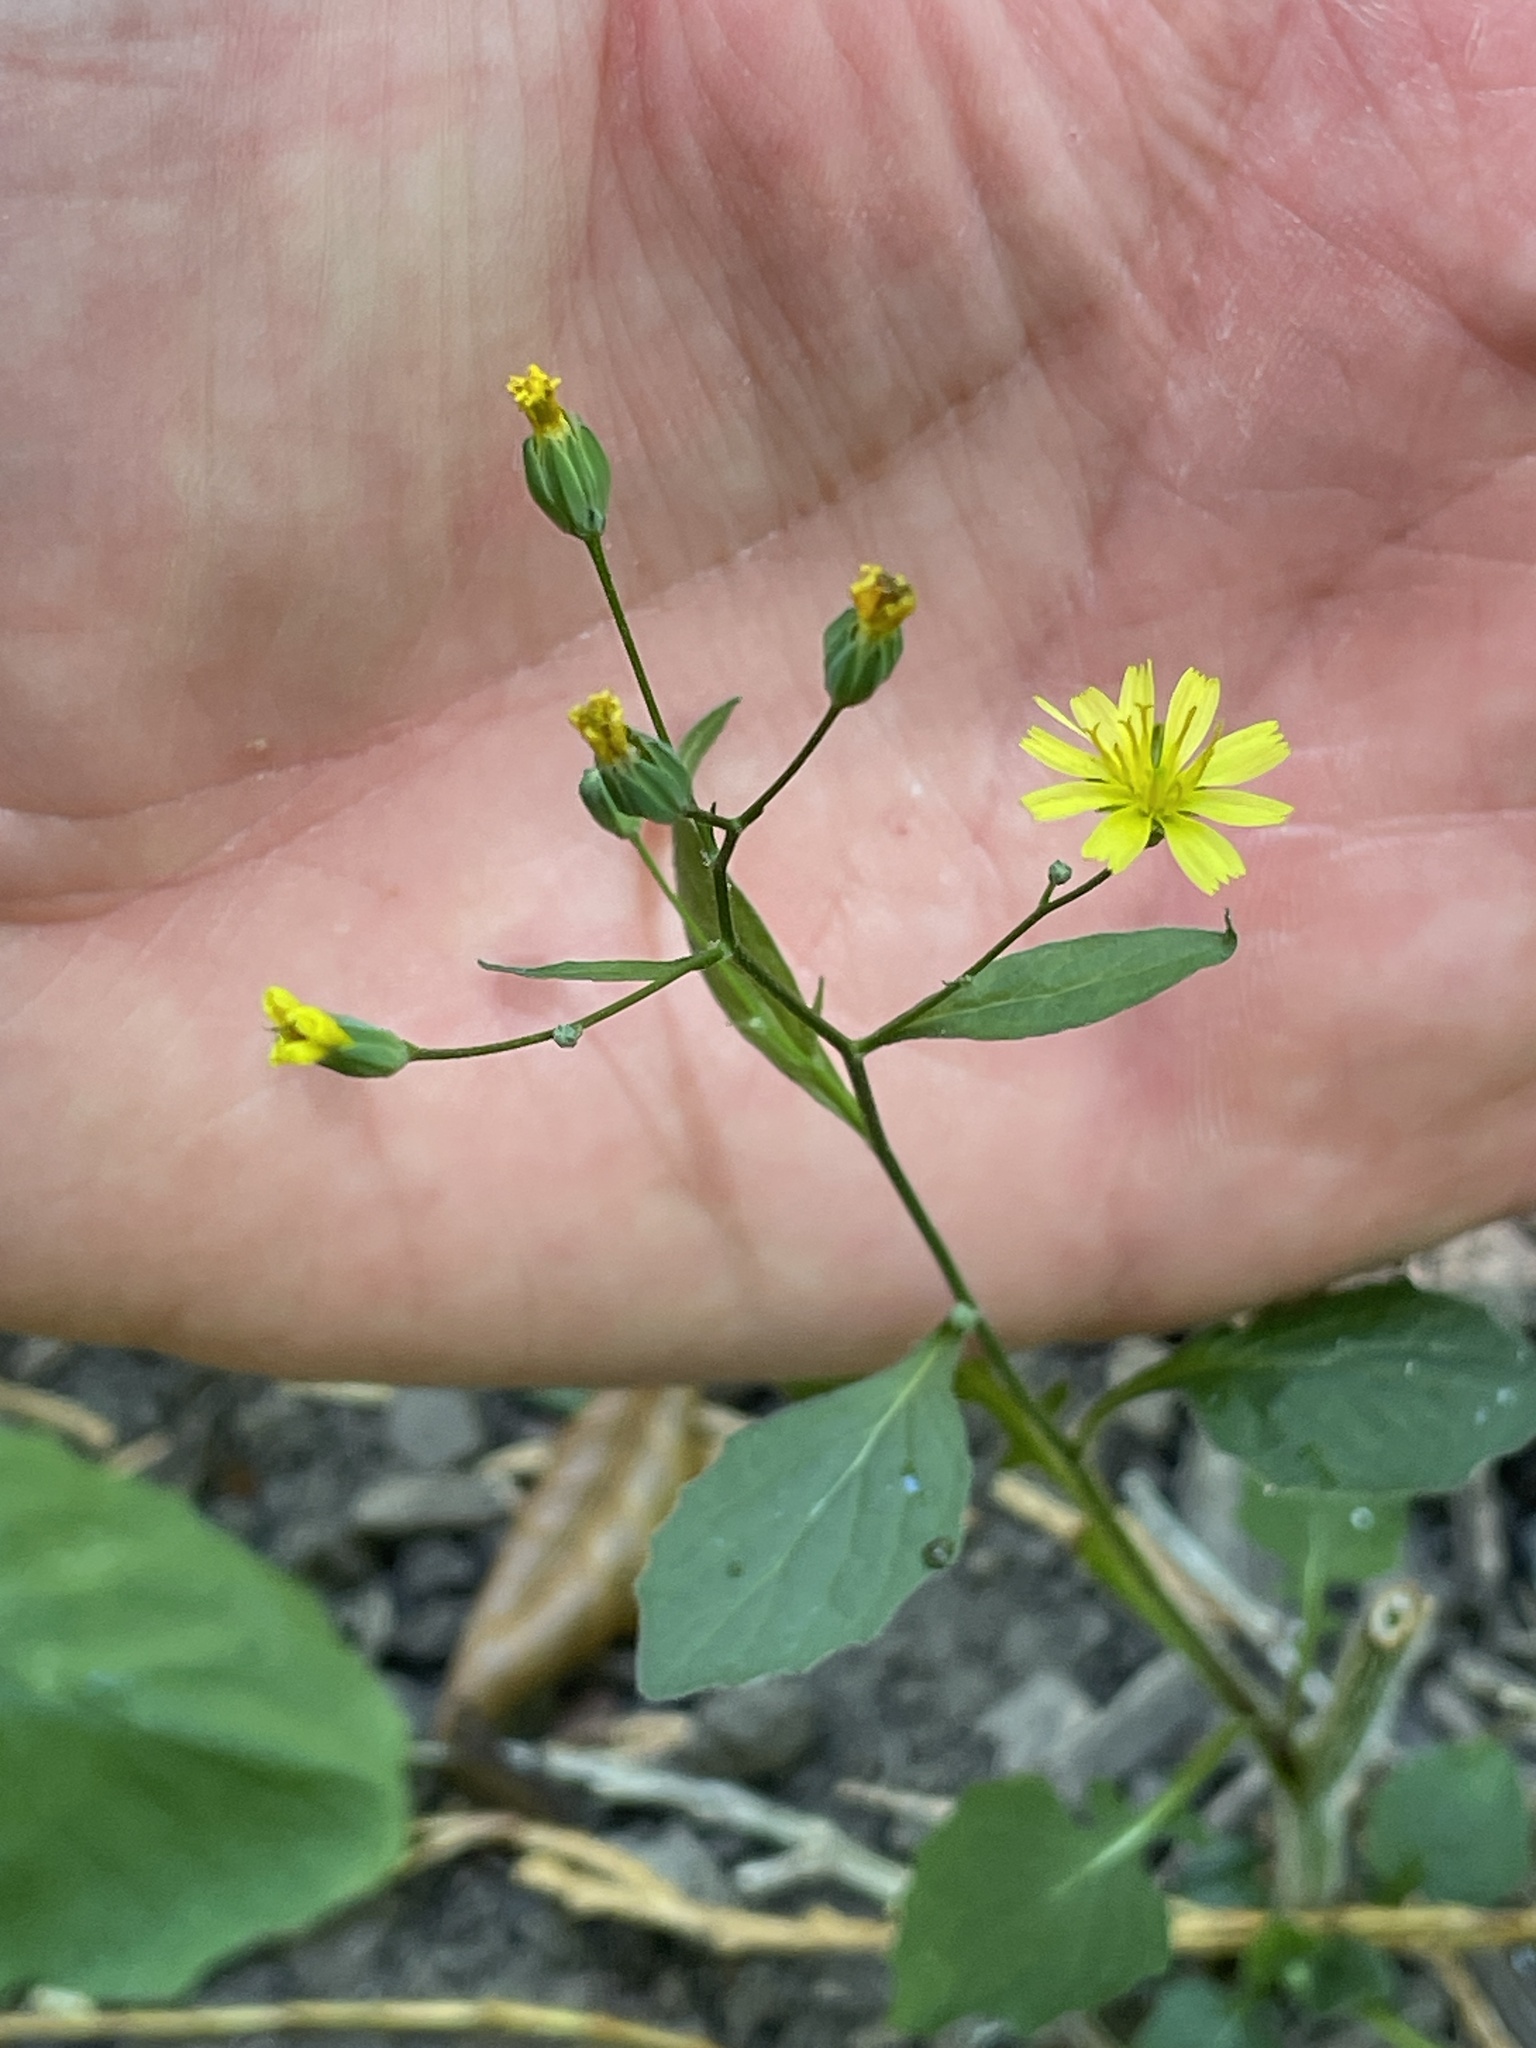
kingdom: Plantae
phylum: Tracheophyta
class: Magnoliopsida
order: Asterales
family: Asteraceae
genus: Lapsana
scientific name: Lapsana communis
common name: Nipplewort
